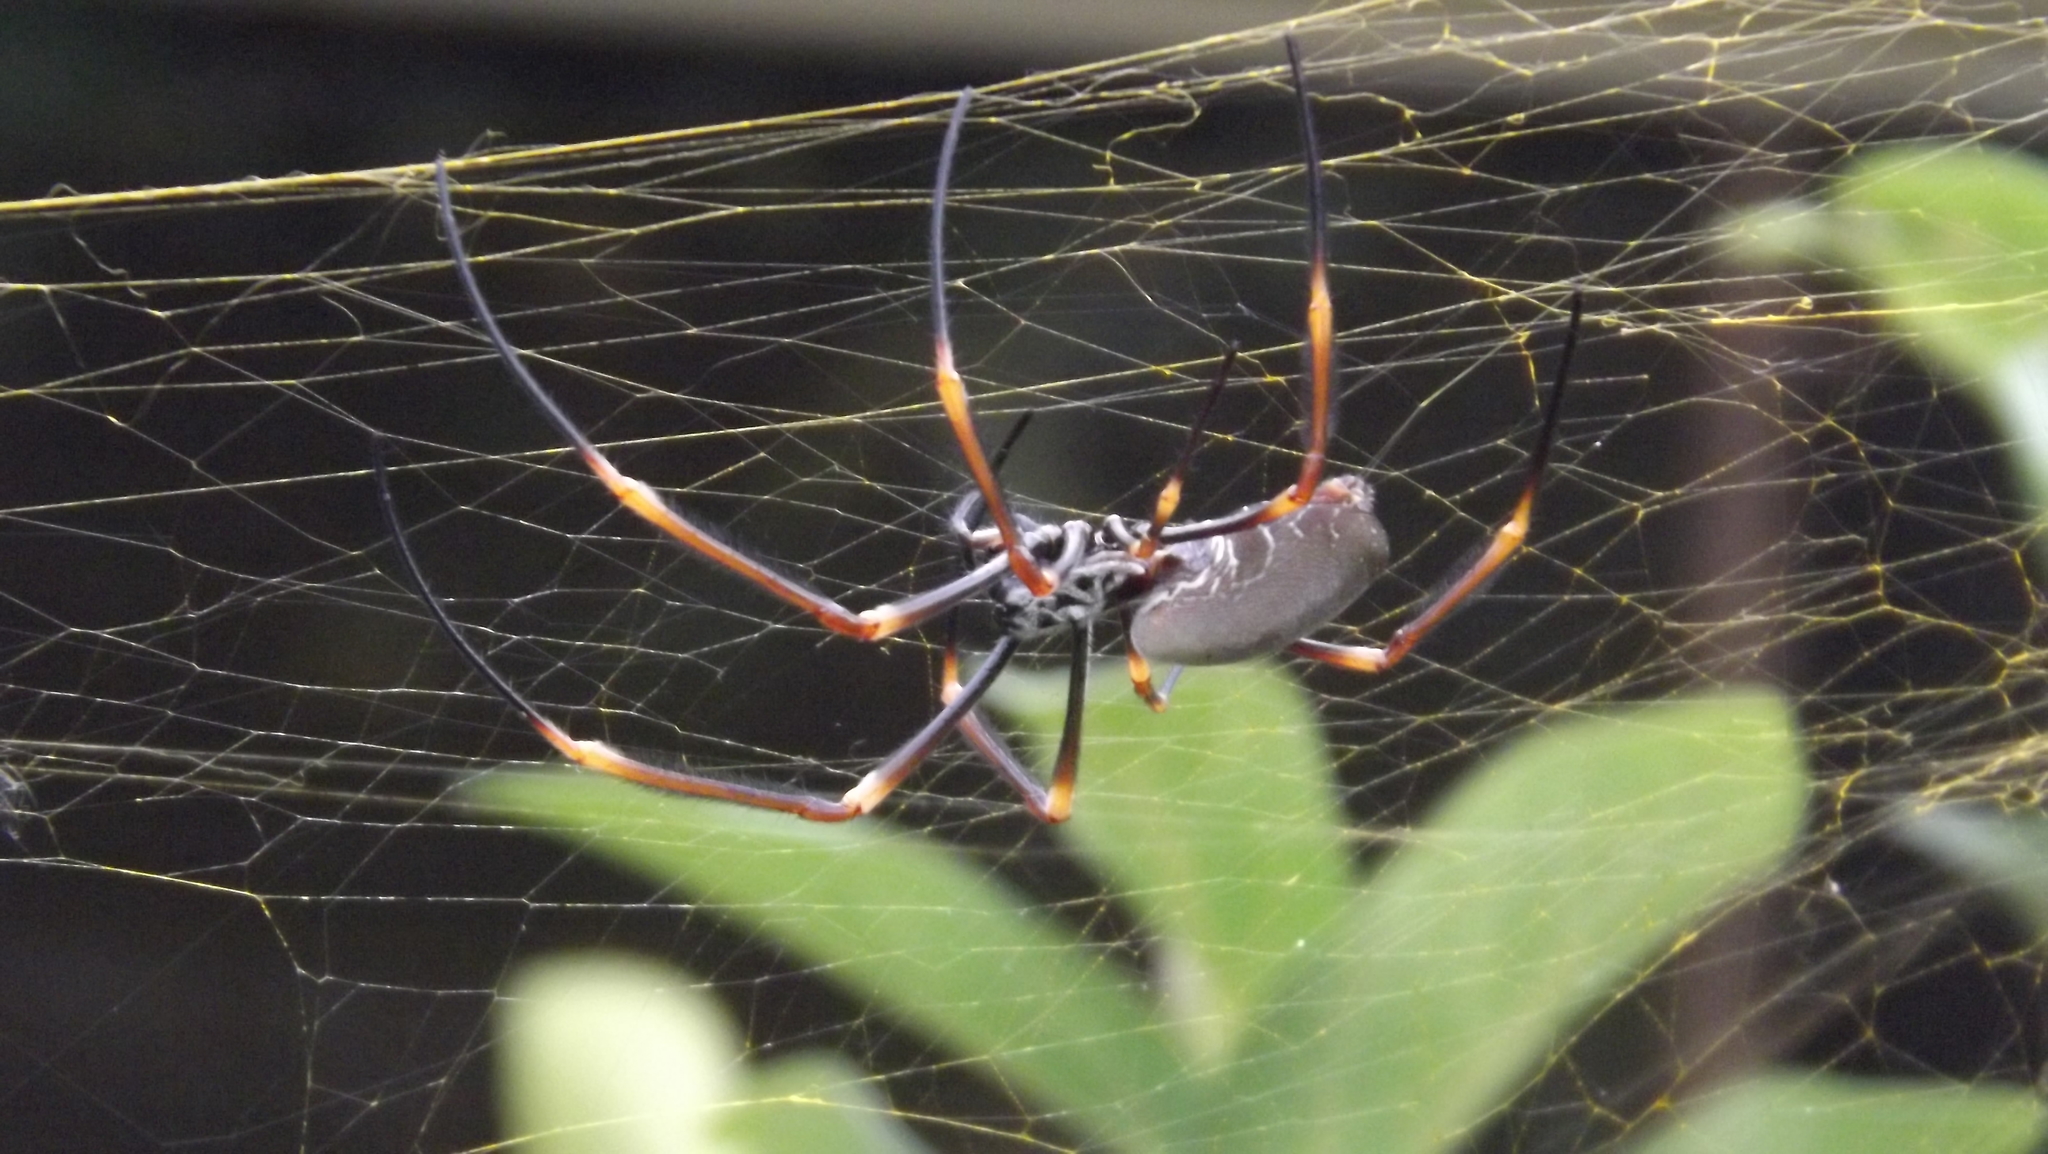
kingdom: Animalia
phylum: Arthropoda
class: Arachnida
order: Araneae
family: Araneidae
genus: Trichonephila
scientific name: Trichonephila plumipes
